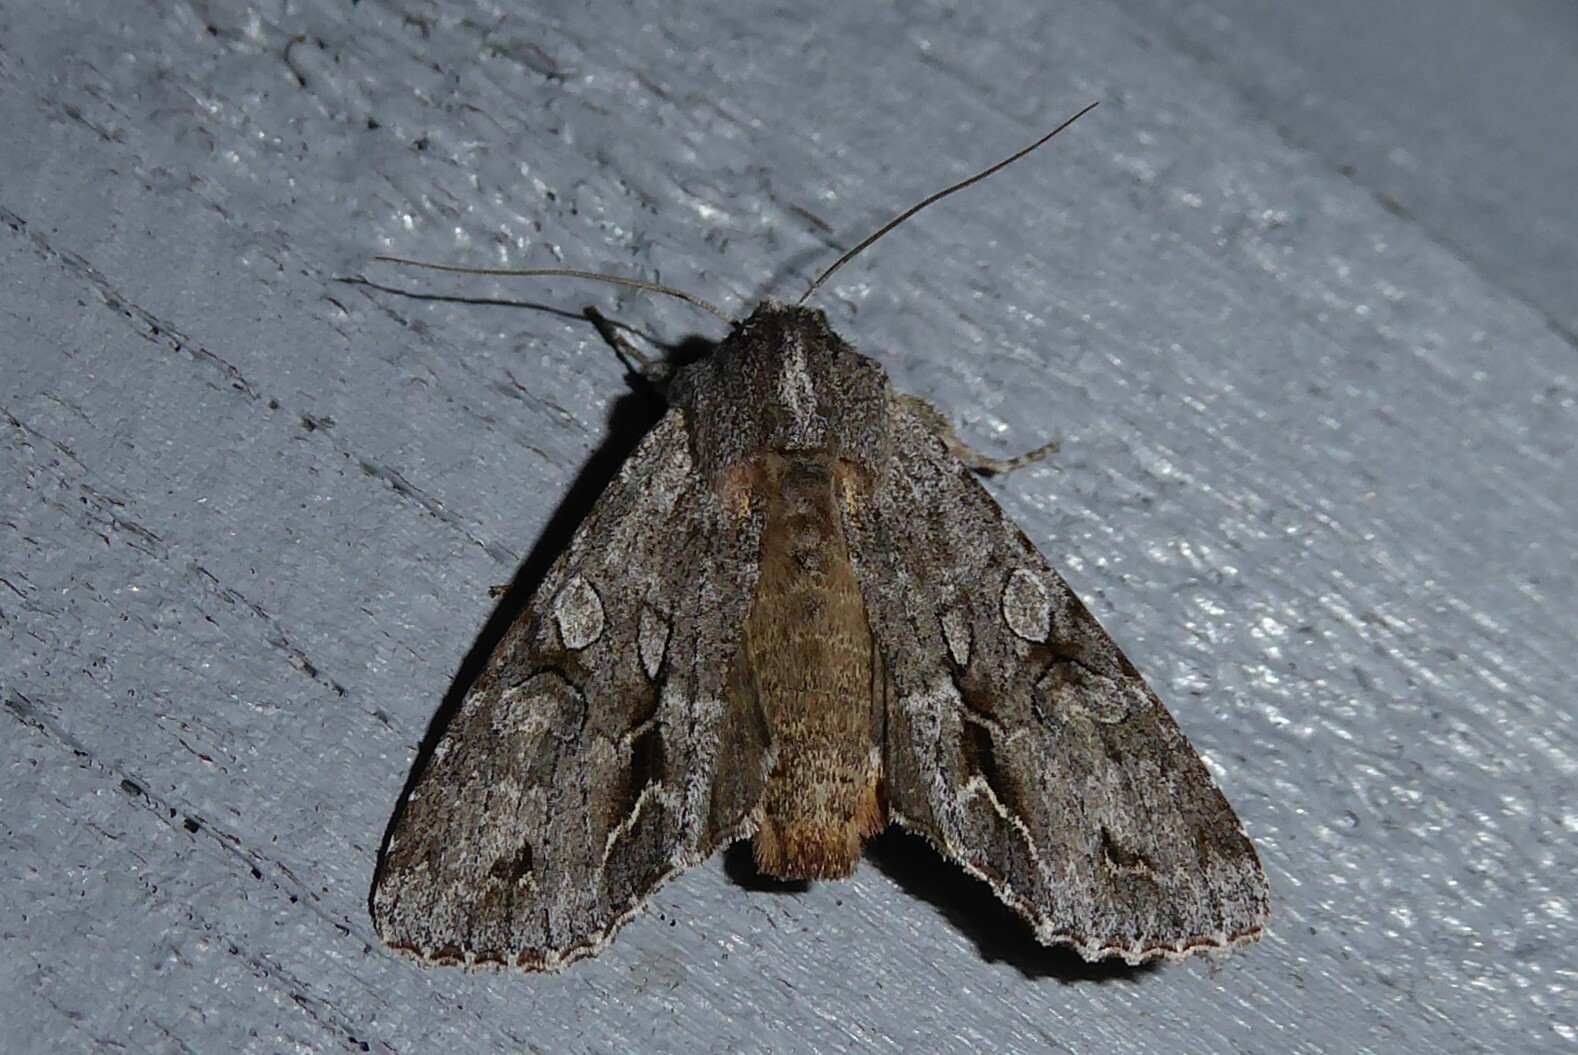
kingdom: Animalia
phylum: Arthropoda
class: Insecta
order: Lepidoptera
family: Noctuidae
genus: Ichneutica
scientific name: Ichneutica
